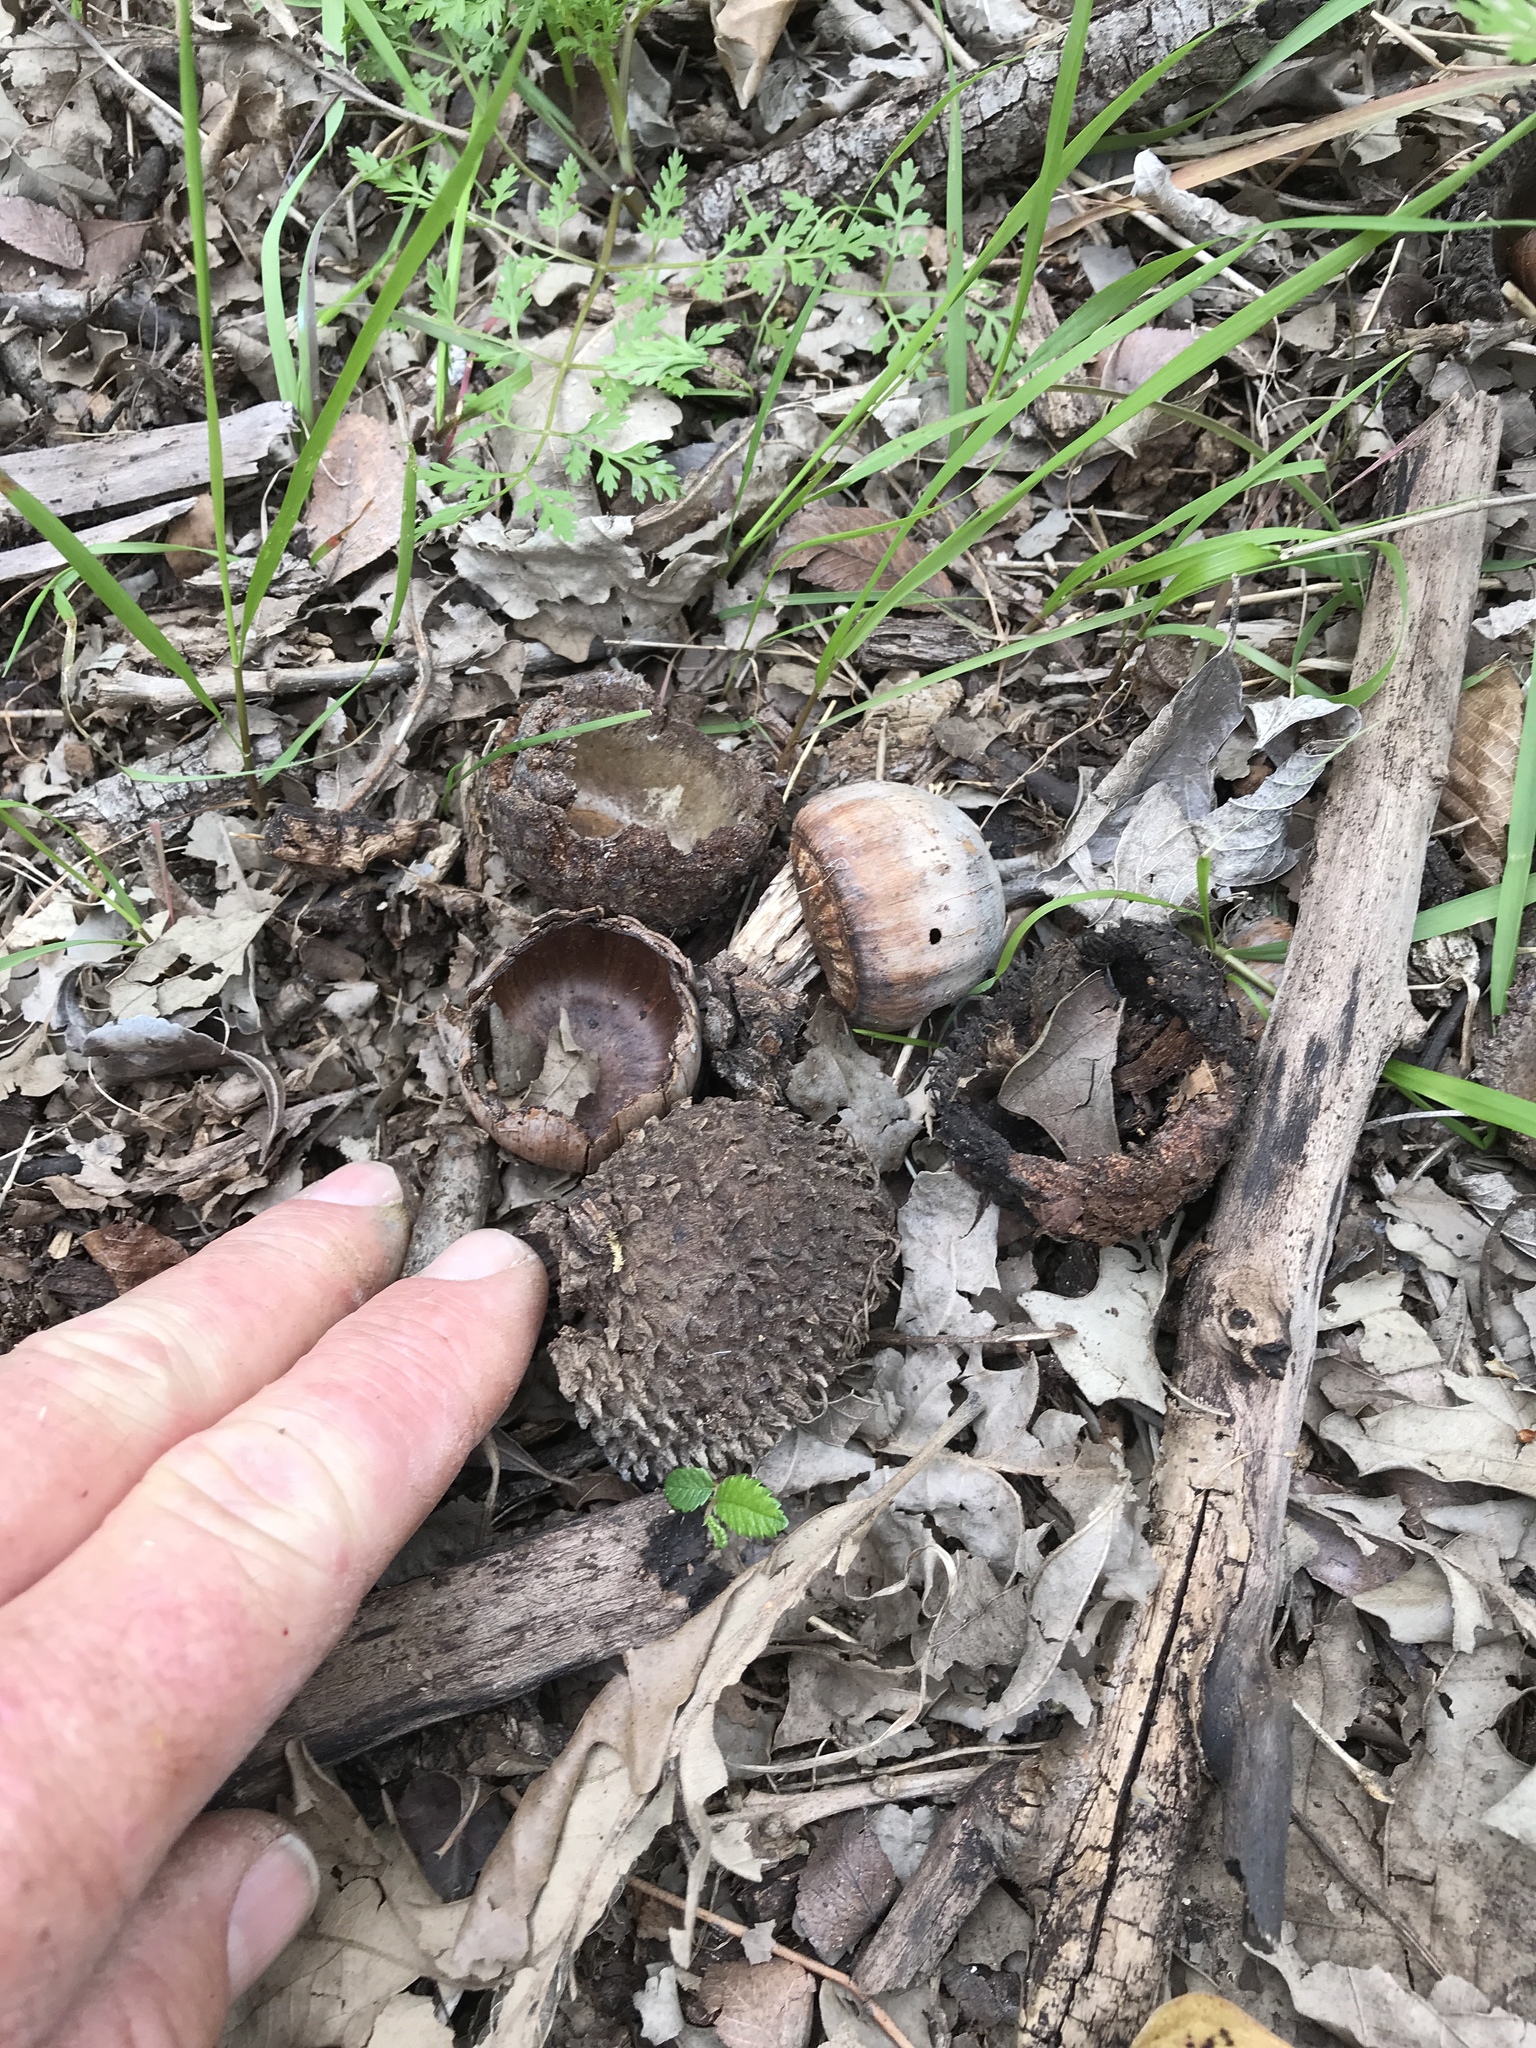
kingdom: Plantae
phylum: Tracheophyta
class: Magnoliopsida
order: Fagales
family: Fagaceae
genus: Quercus
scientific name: Quercus macrocarpa
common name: Bur oak
